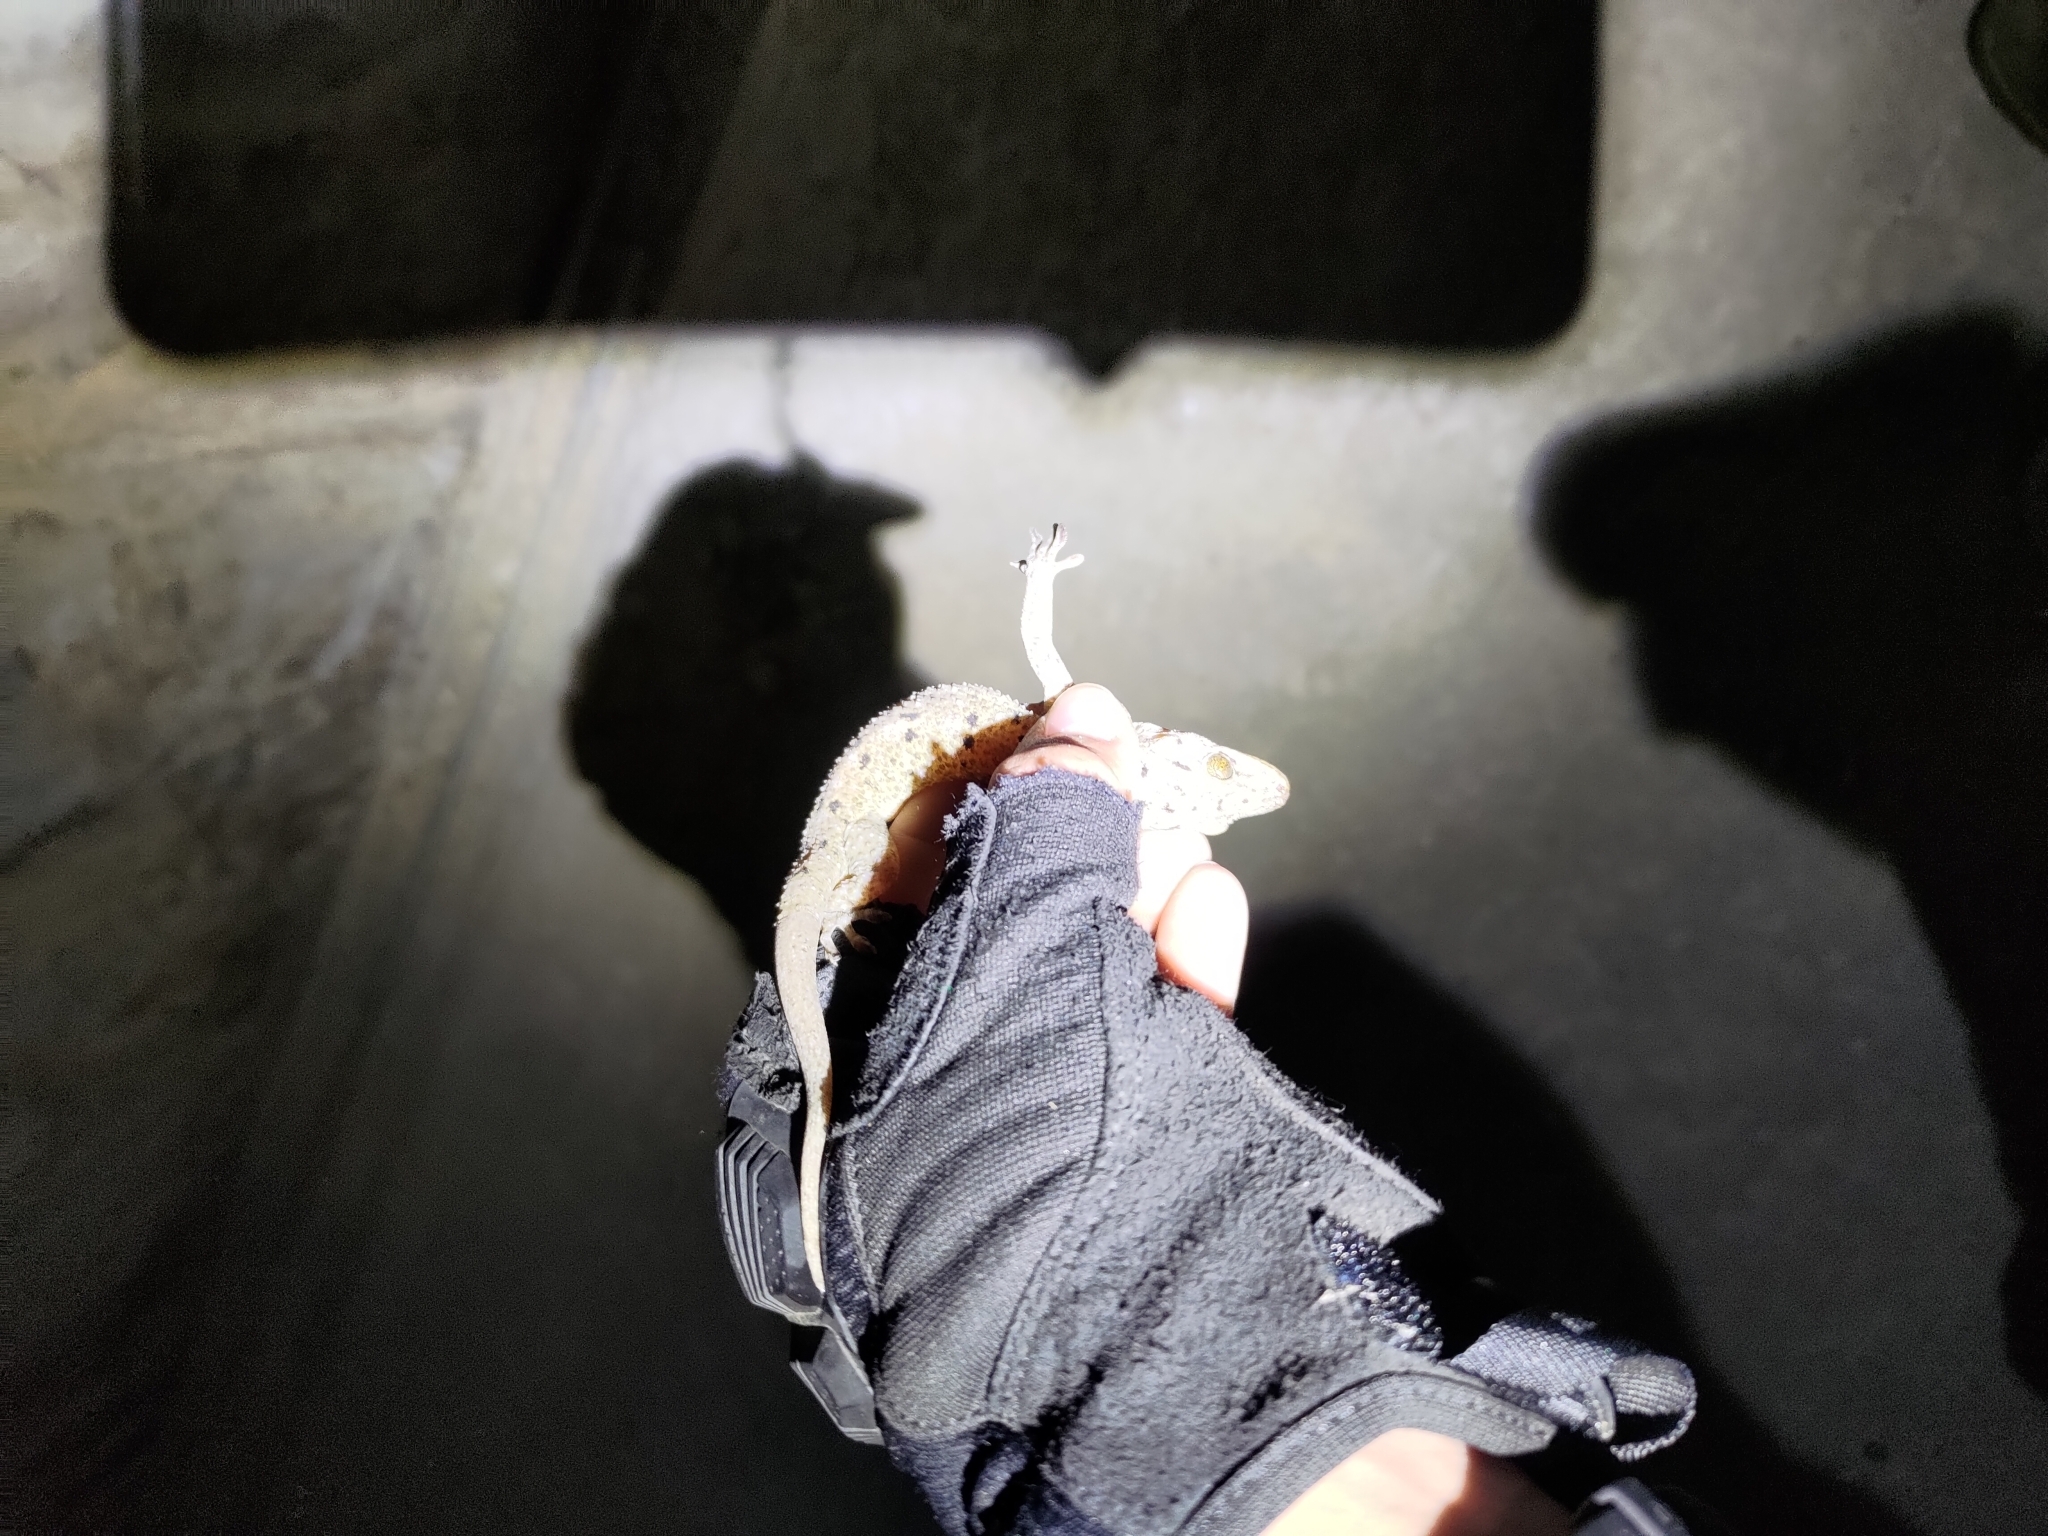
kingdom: Animalia
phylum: Chordata
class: Squamata
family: Gekkonidae
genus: Gekko
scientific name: Gekko monarchus
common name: Spotted house gecko
